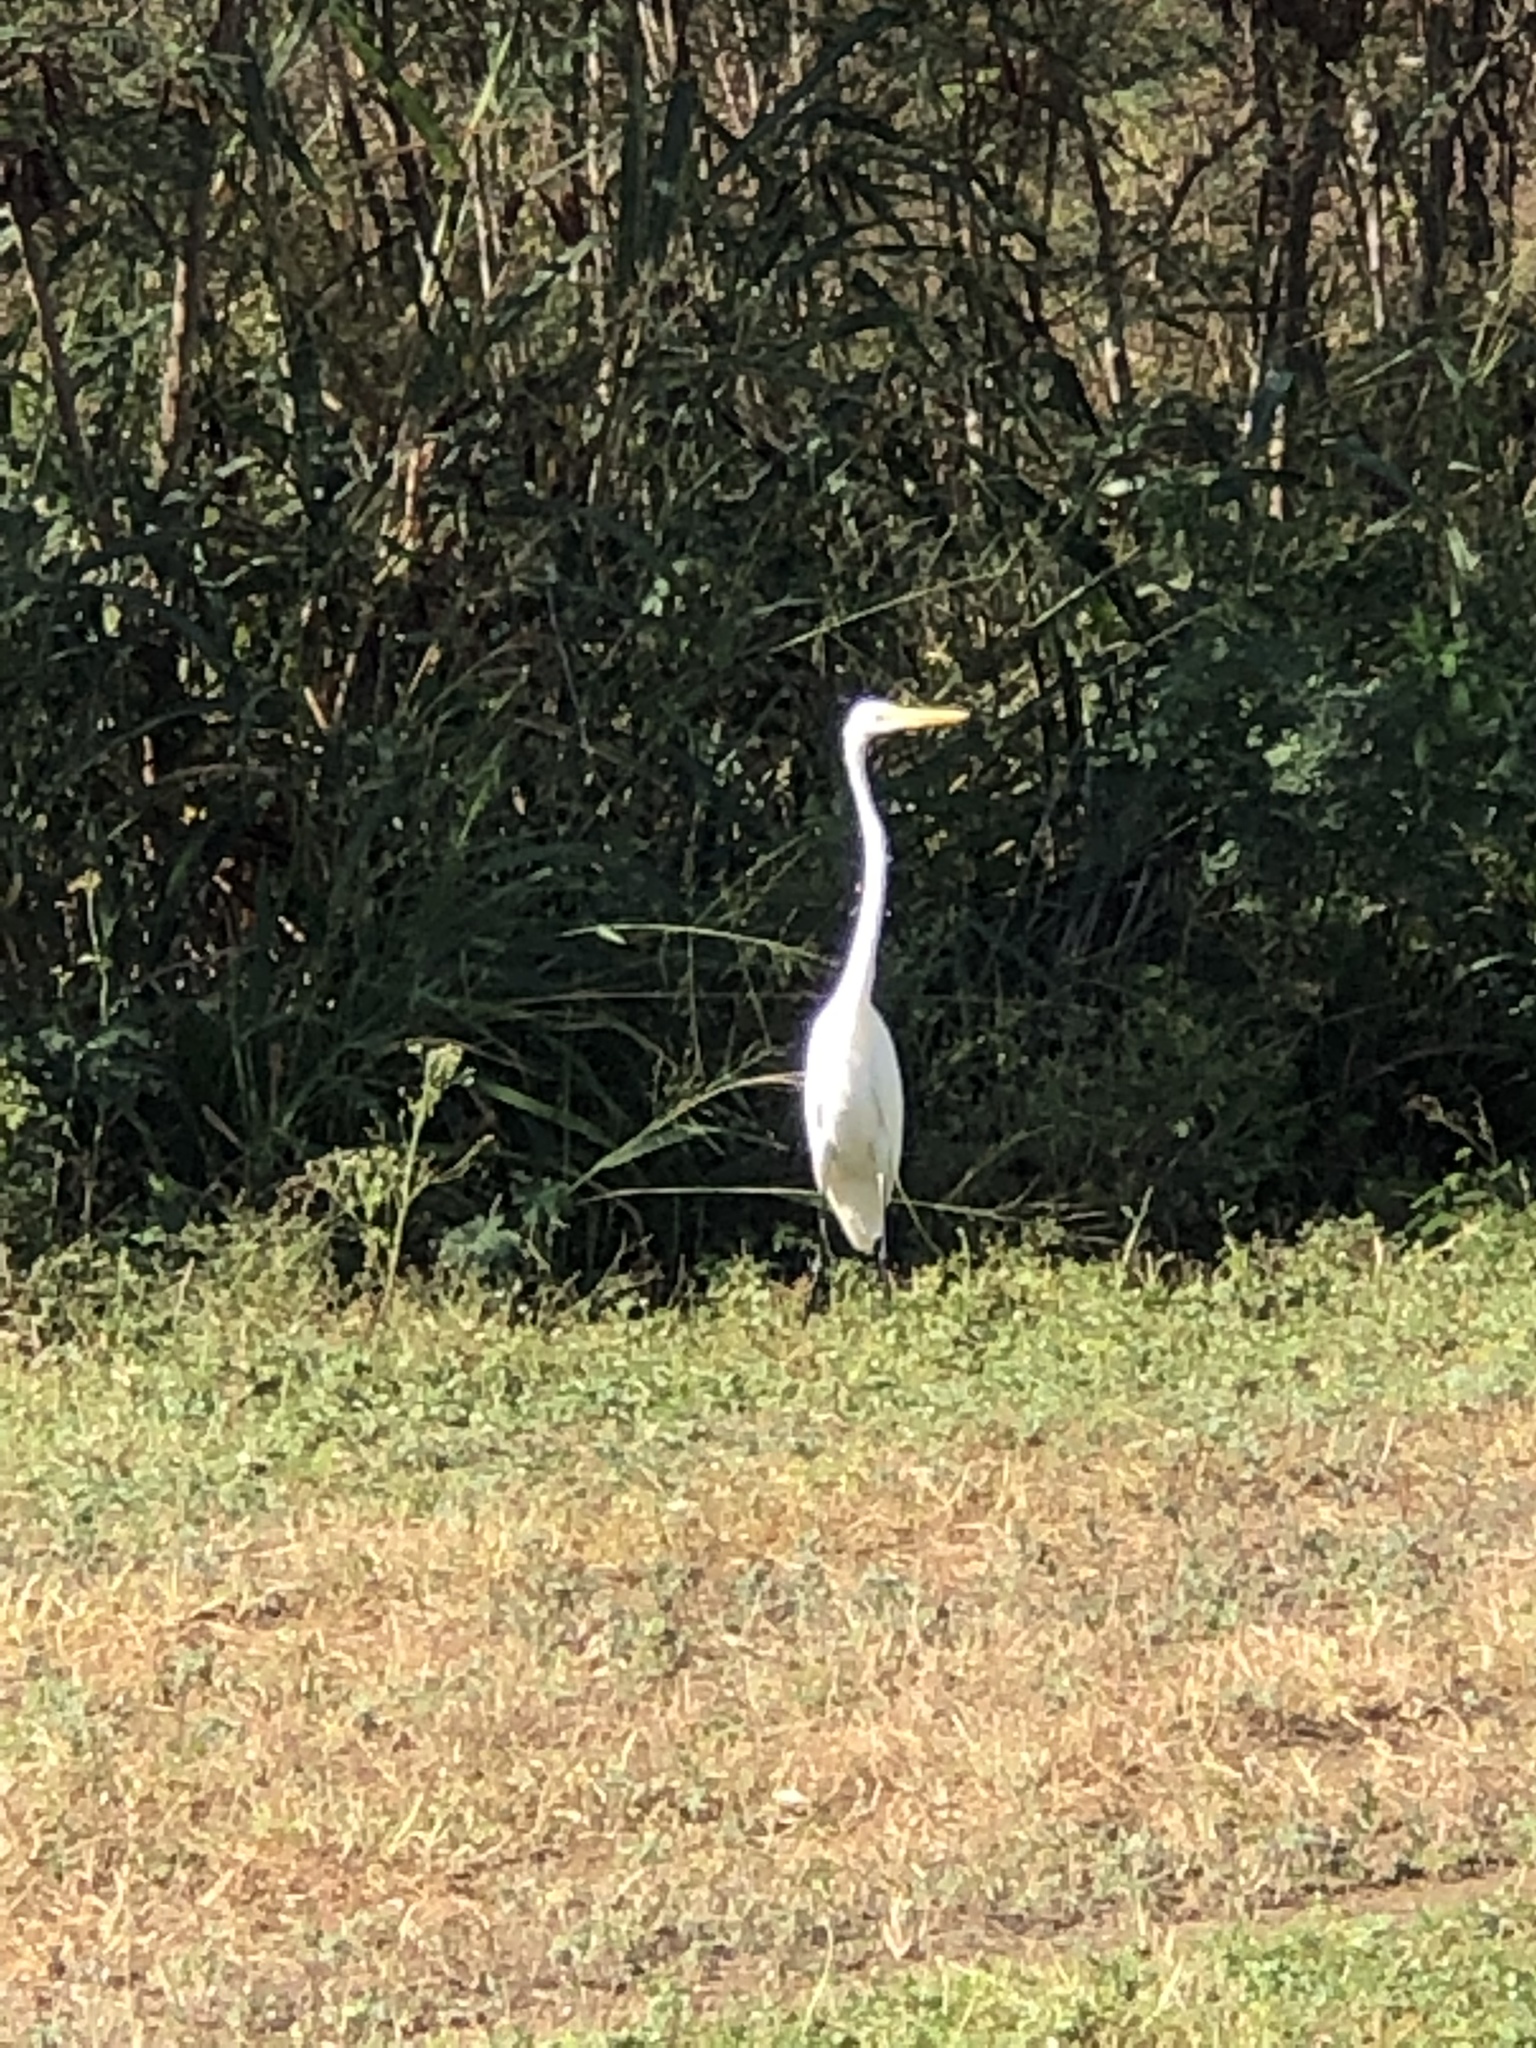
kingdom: Animalia
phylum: Chordata
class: Aves
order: Pelecaniformes
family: Ardeidae
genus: Ardea
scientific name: Ardea alba
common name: Great egret
